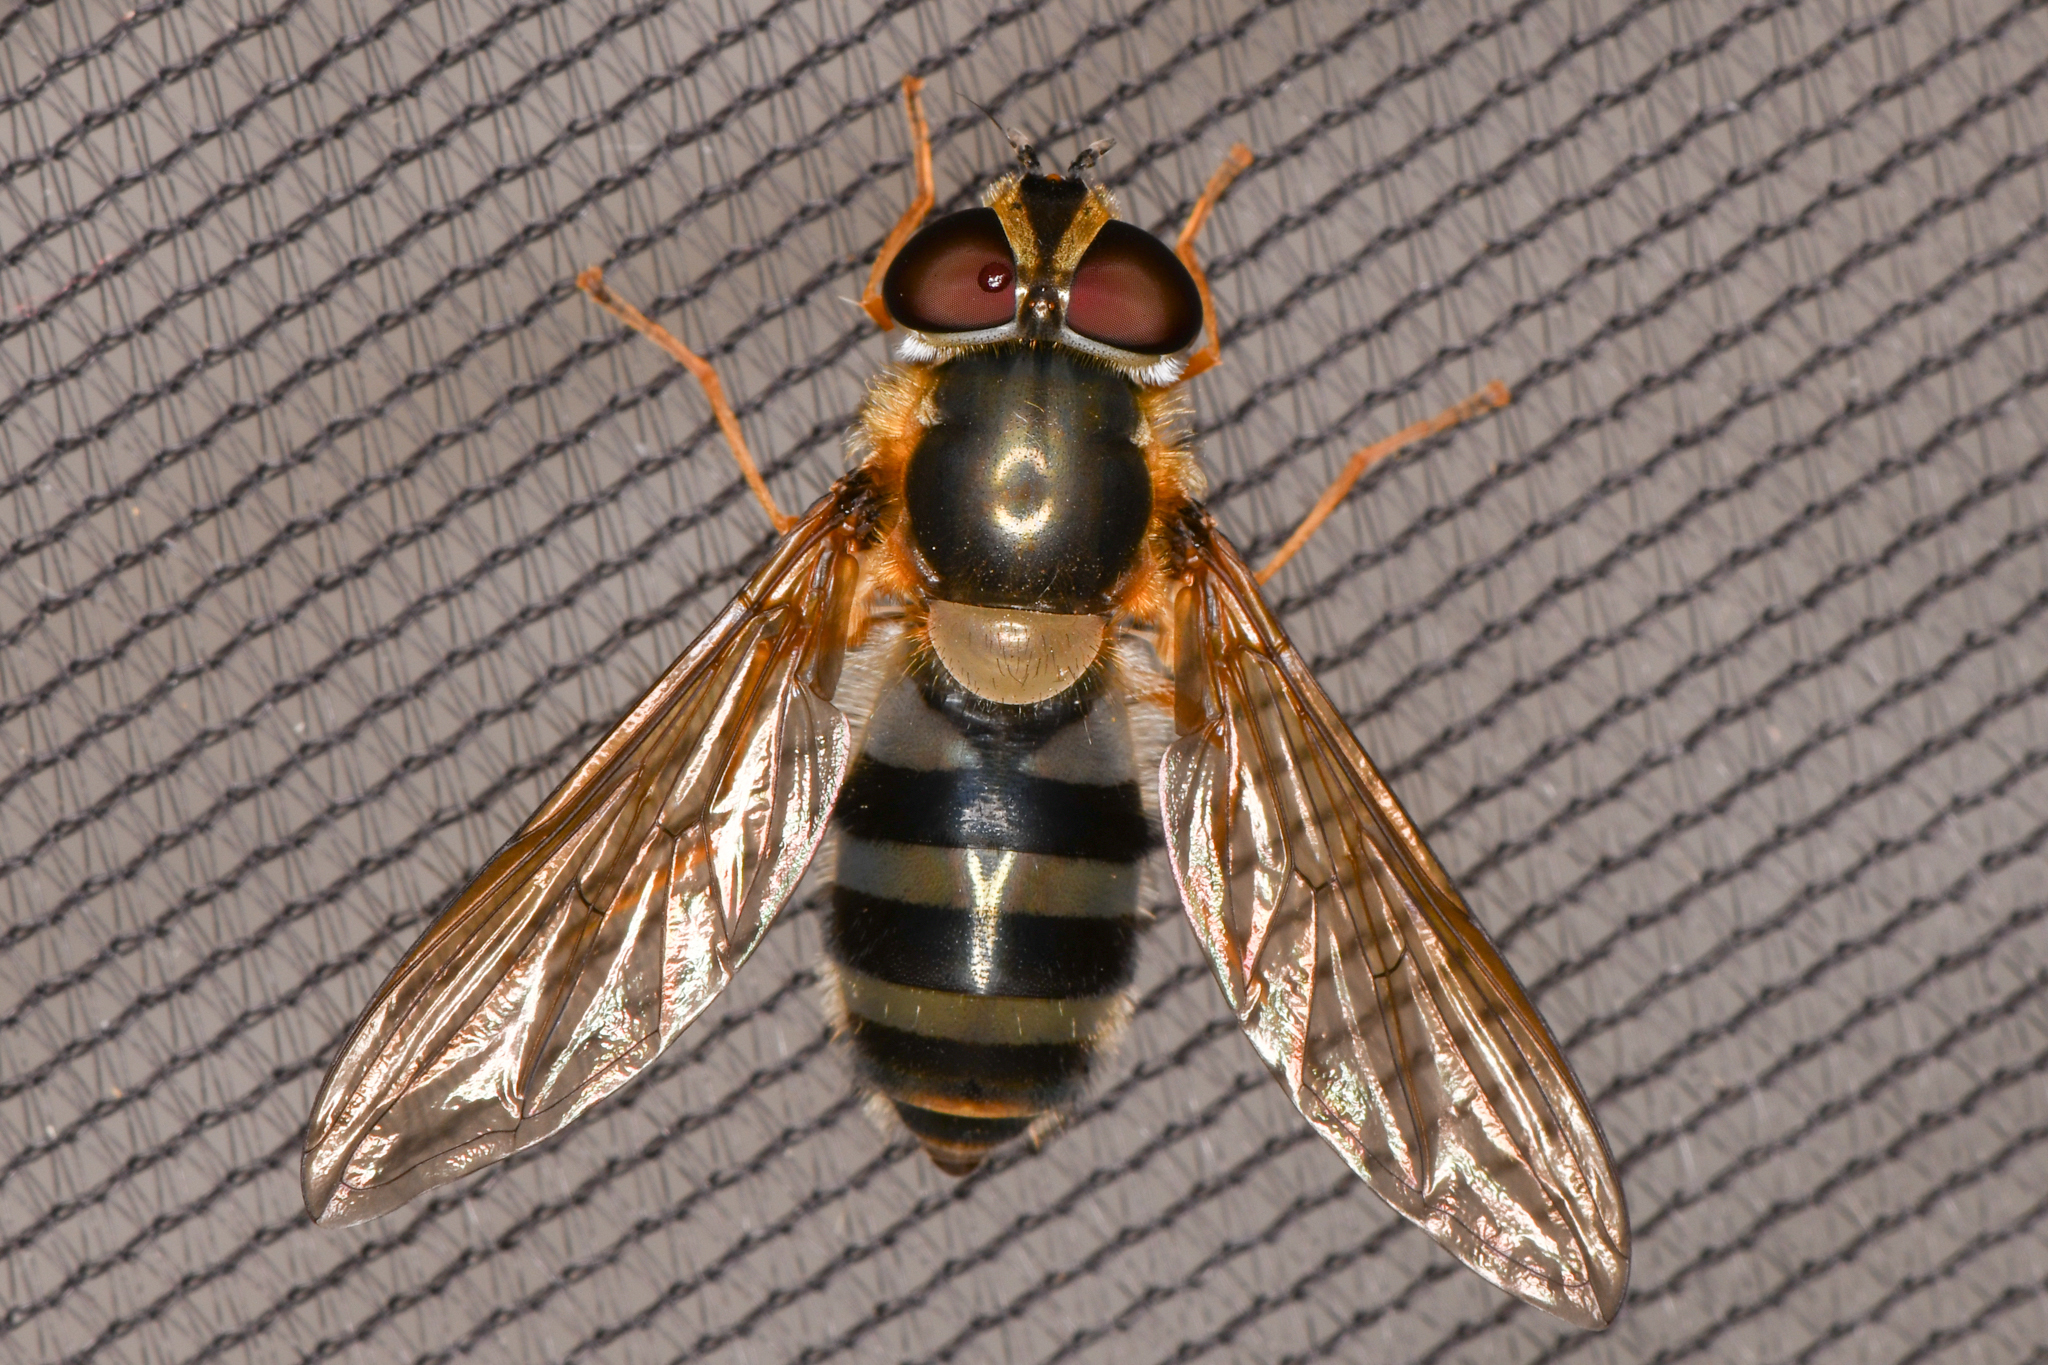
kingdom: Animalia
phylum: Arthropoda
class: Insecta
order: Diptera
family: Syrphidae
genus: Epistrophe
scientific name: Epistrophe grossulariae
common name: Black-horned smoothtail
